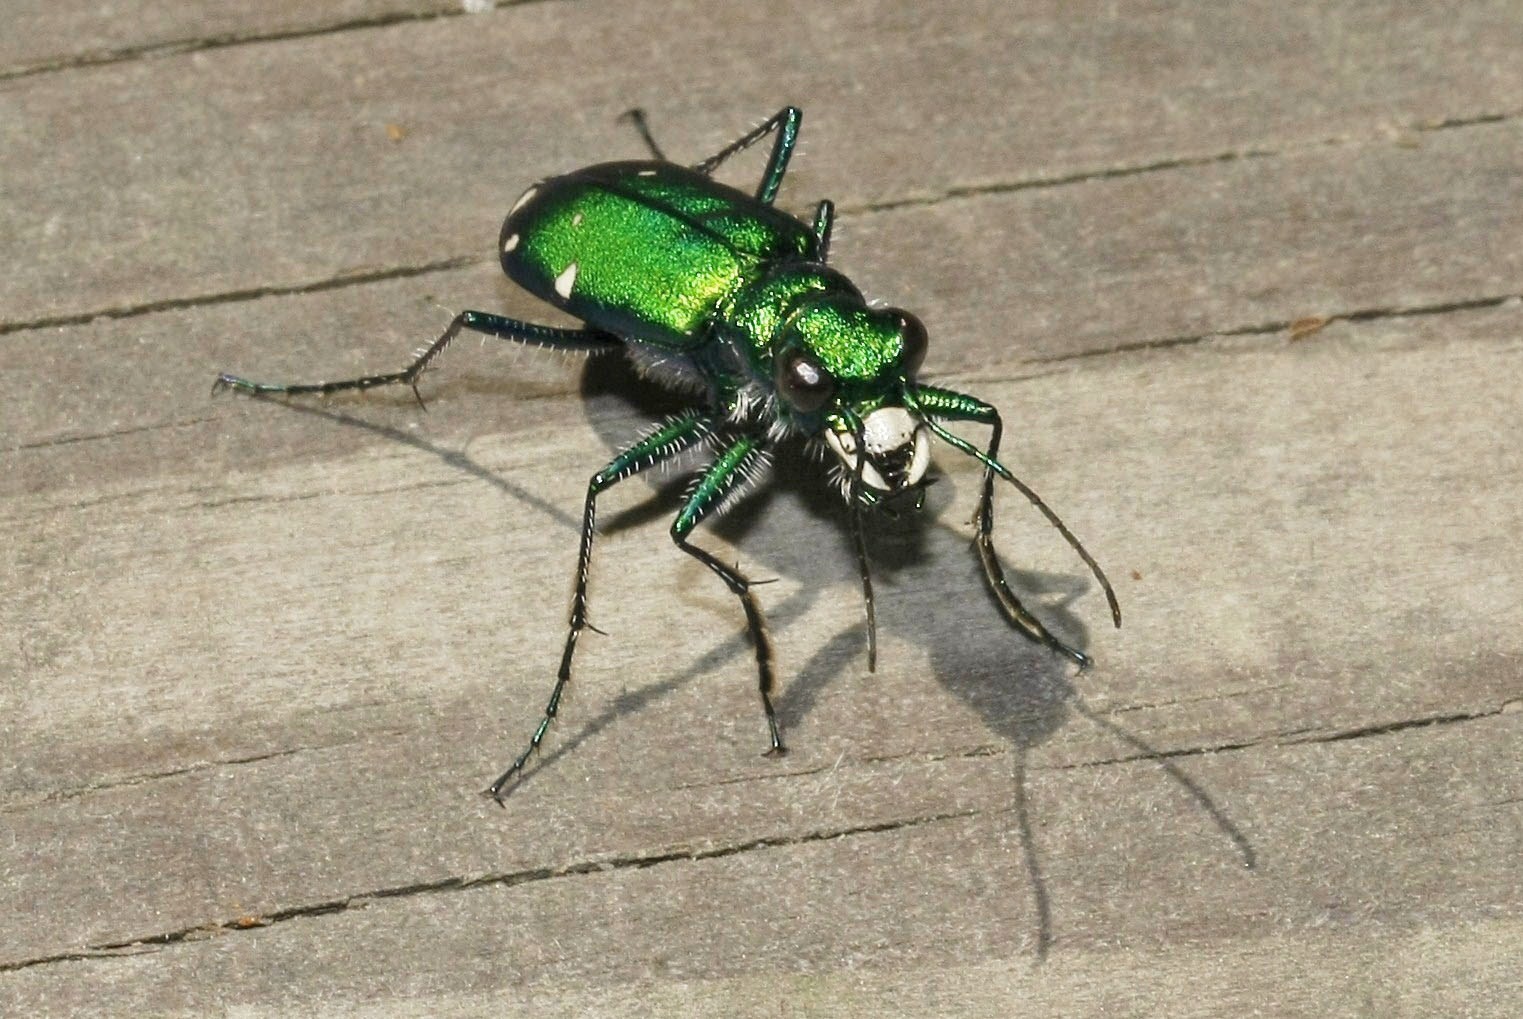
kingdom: Animalia
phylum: Arthropoda
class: Insecta
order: Coleoptera
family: Carabidae
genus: Cicindela
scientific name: Cicindela sexguttata
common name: Six-spotted tiger beetle
